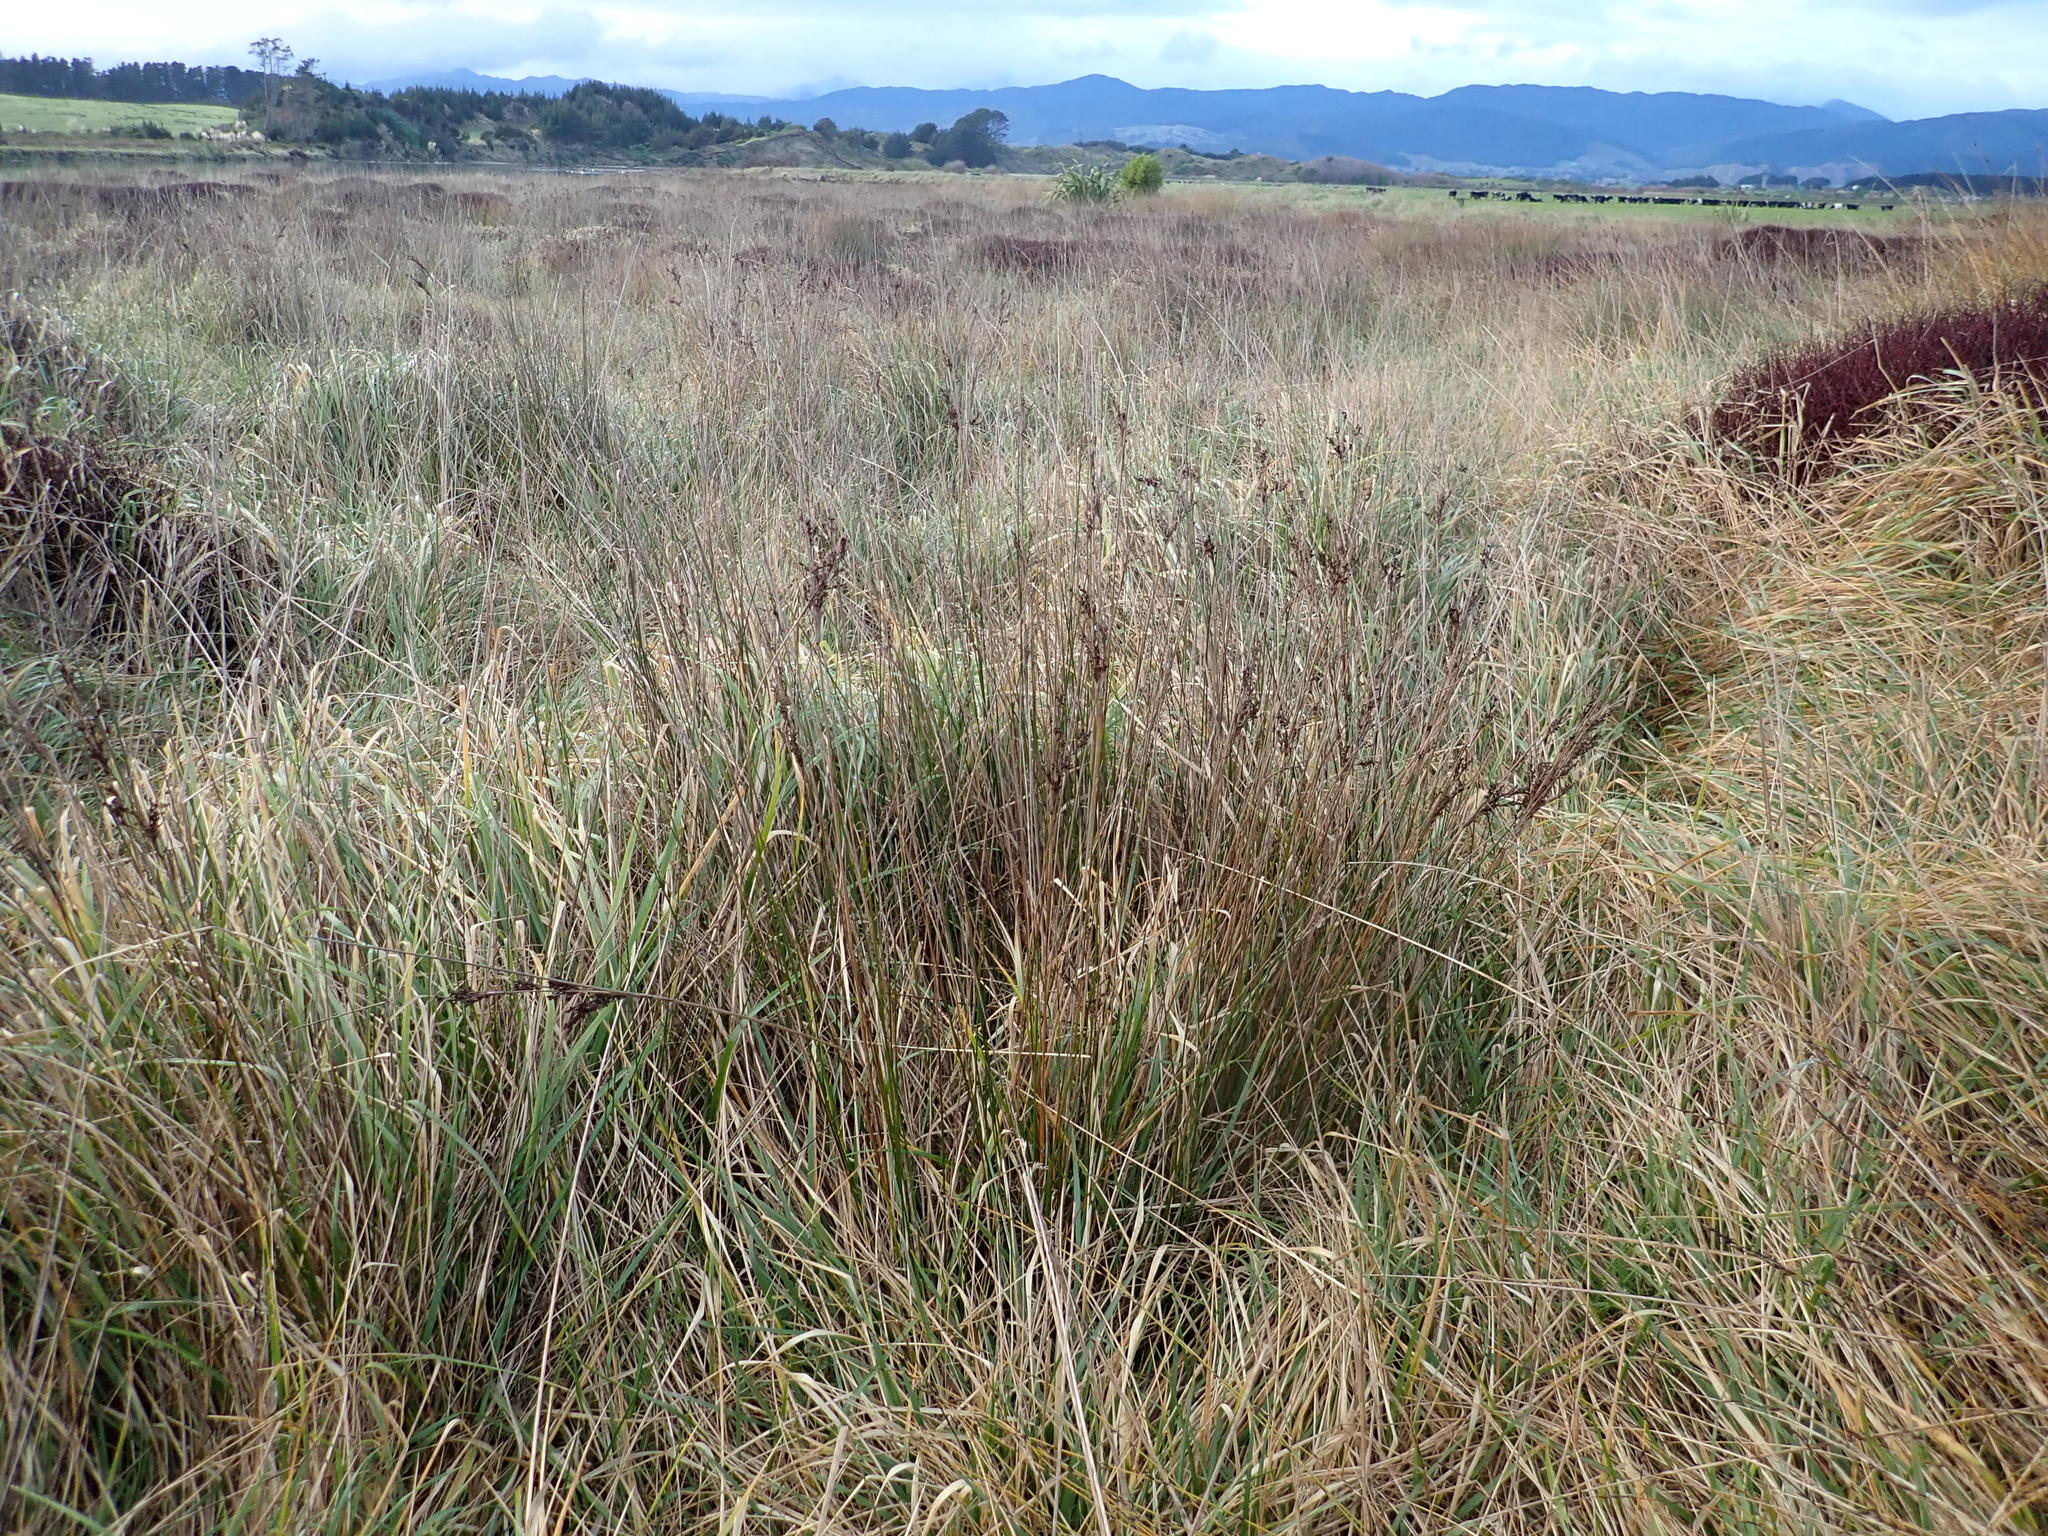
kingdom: Plantae
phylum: Tracheophyta
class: Liliopsida
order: Poales
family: Juncaceae
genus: Juncus
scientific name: Juncus kraussii
